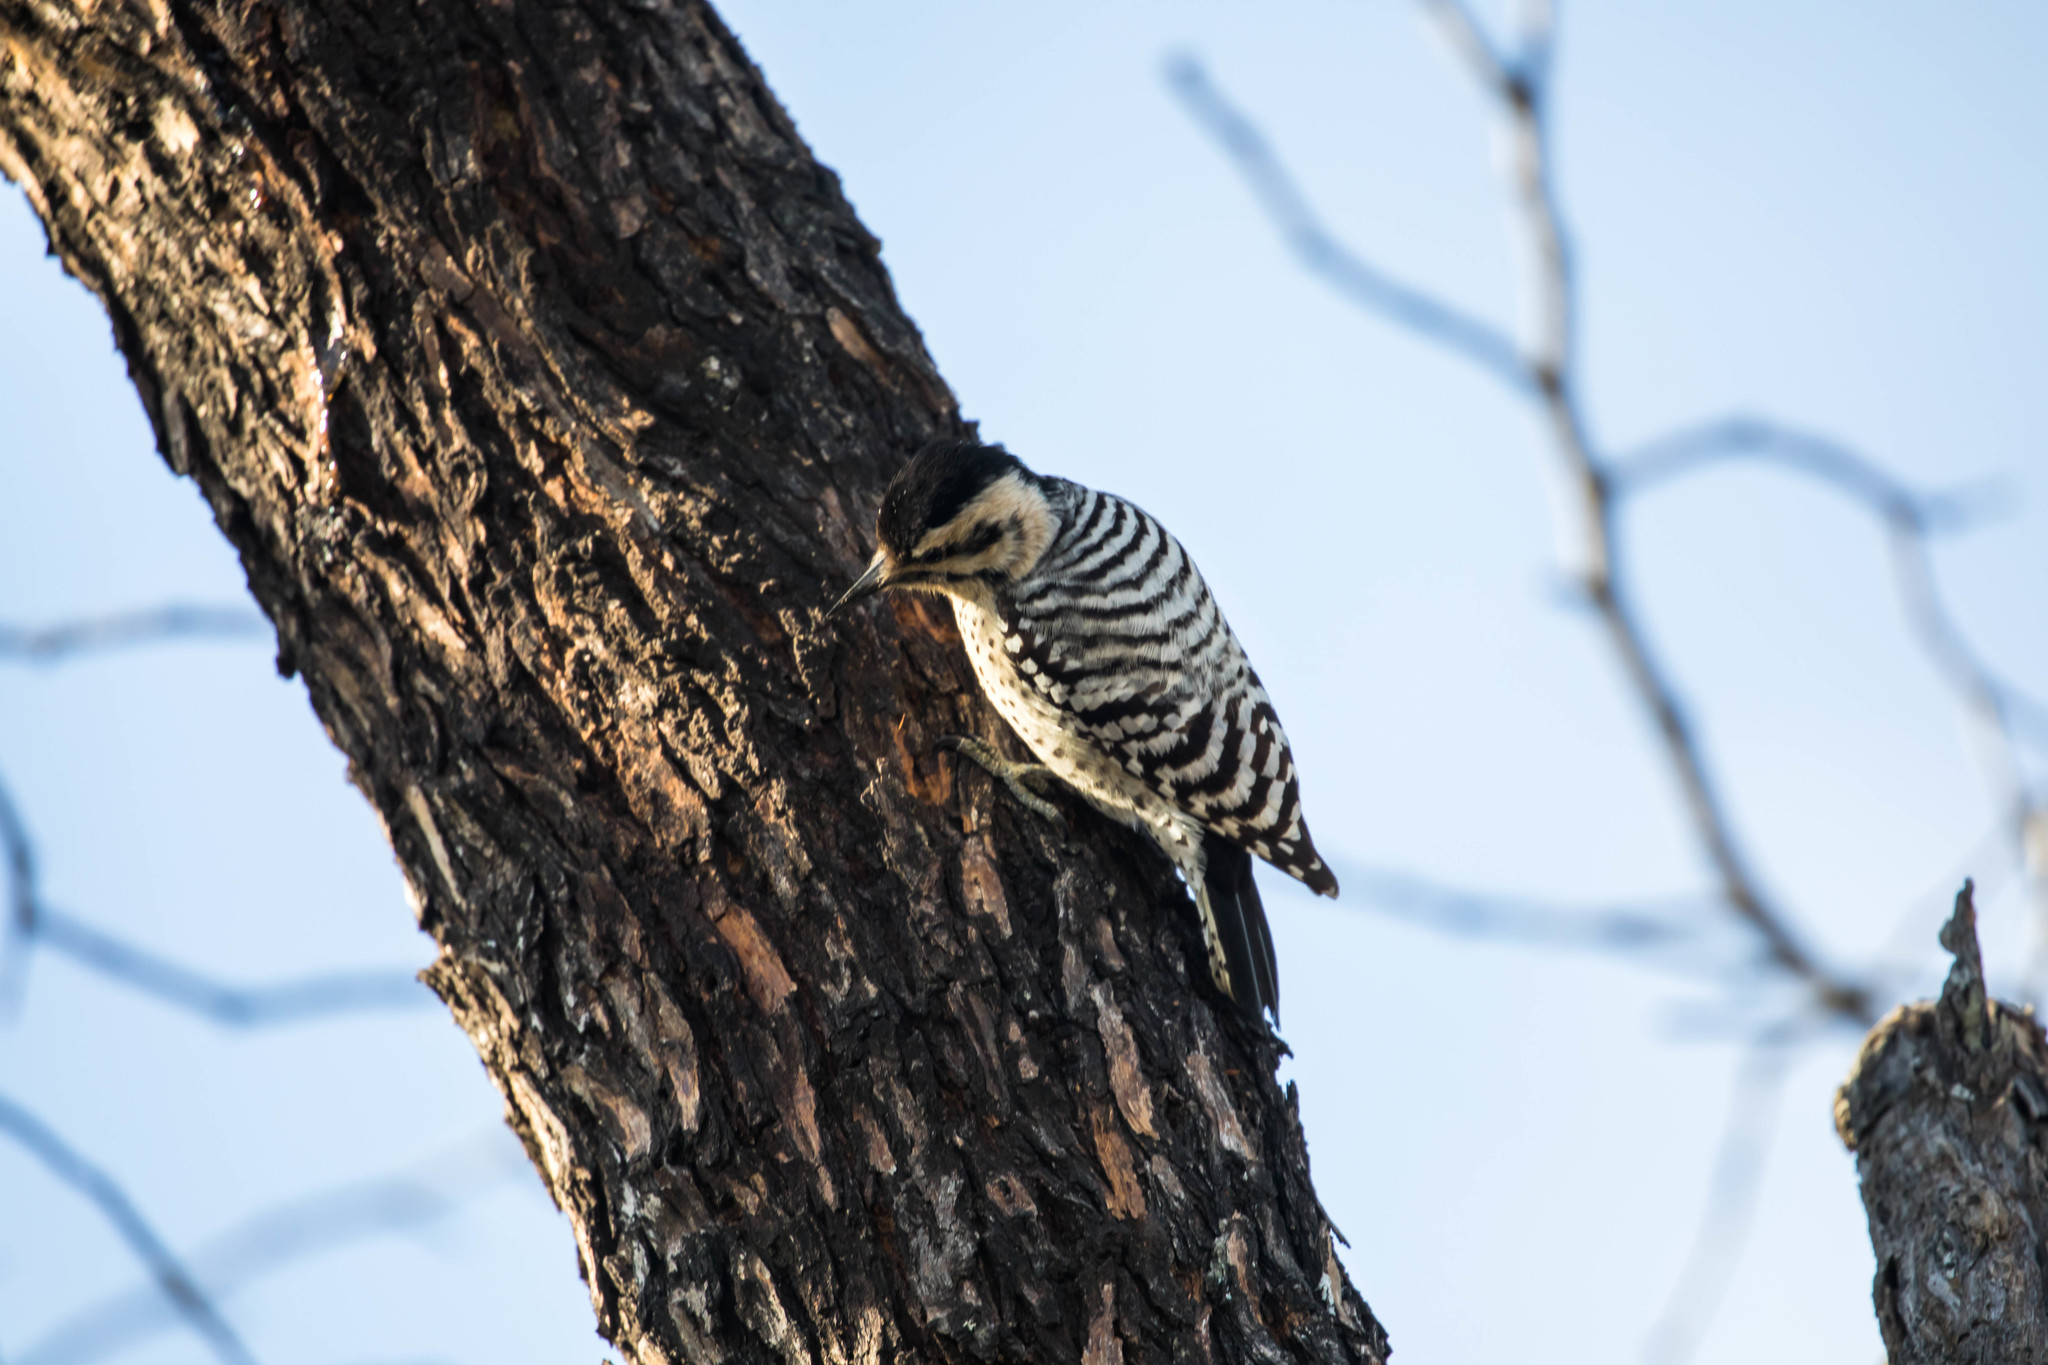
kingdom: Animalia
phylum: Chordata
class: Aves
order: Piciformes
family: Picidae
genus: Dryobates
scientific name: Dryobates scalaris
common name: Ladder-backed woodpecker
